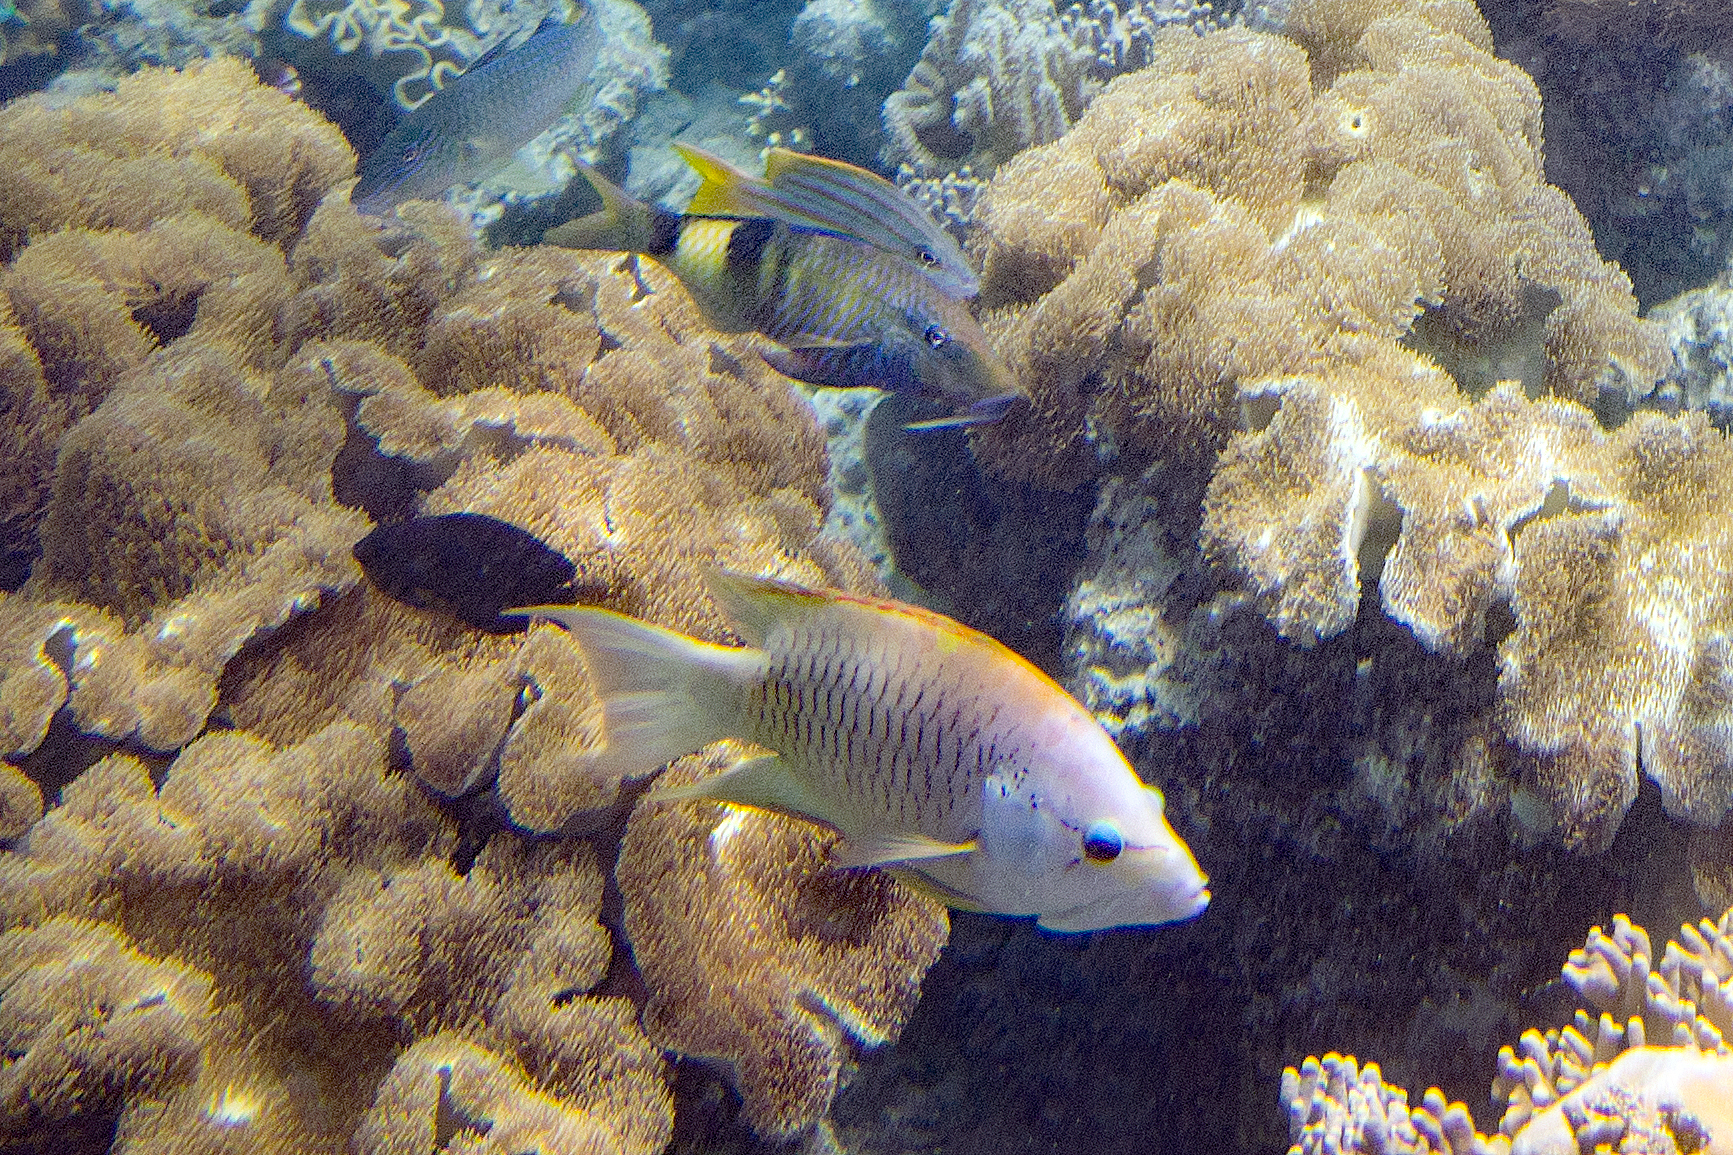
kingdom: Animalia
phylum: Chordata
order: Perciformes
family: Labridae
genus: Epibulus
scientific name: Epibulus insidiator
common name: Slingjaw wrasse
